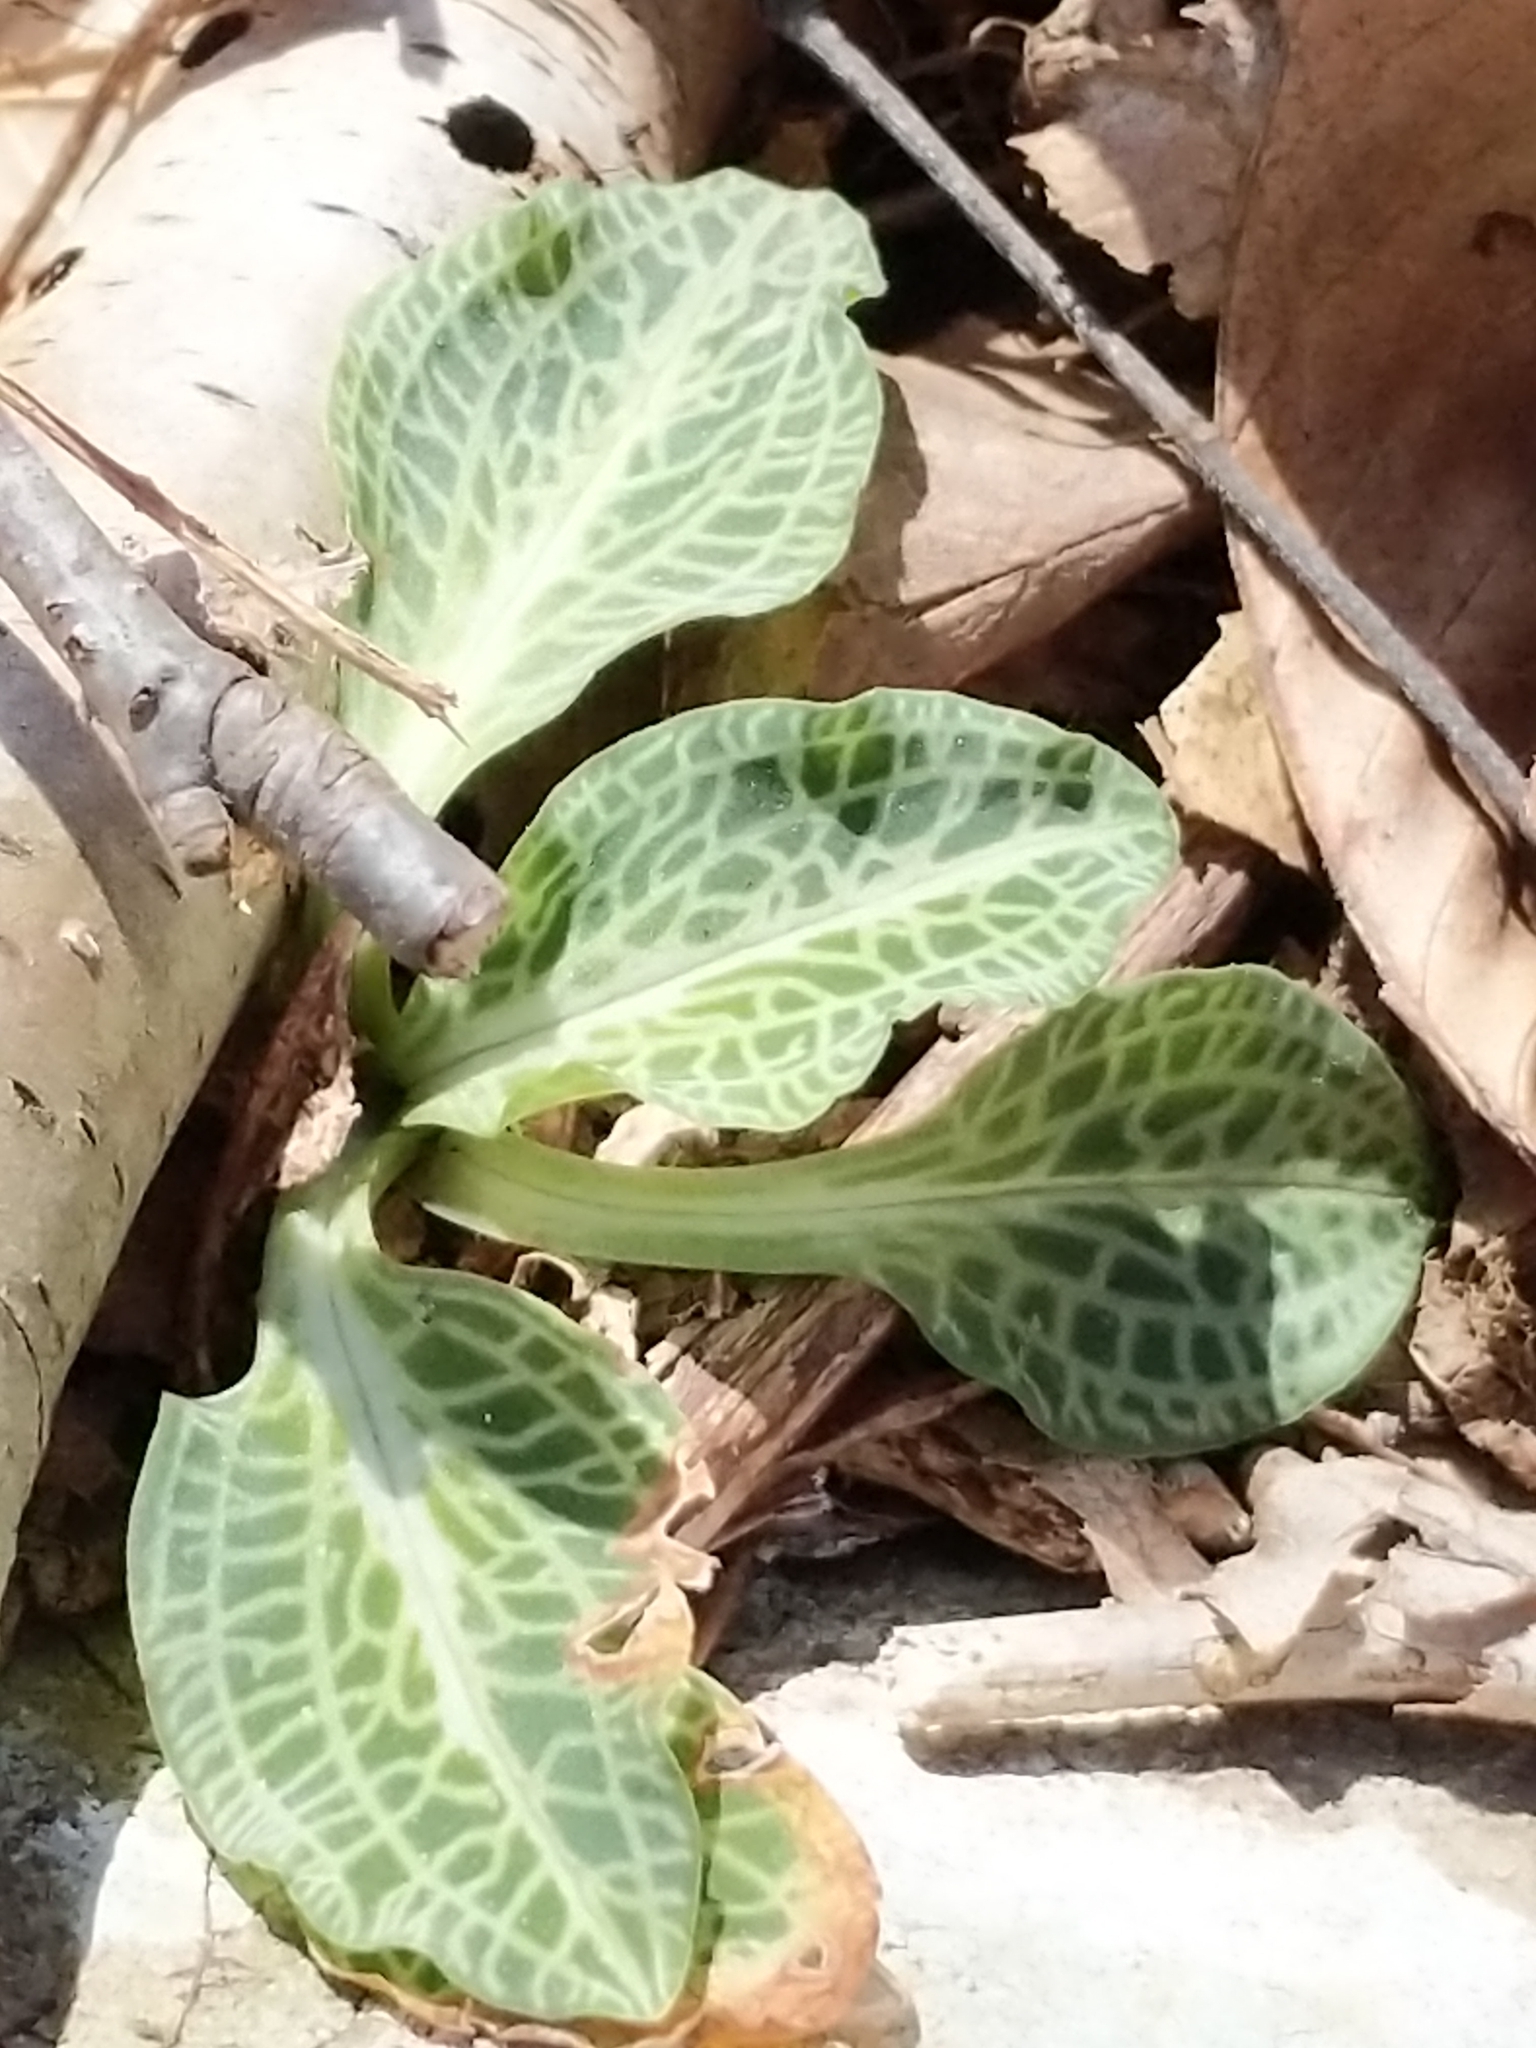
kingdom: Plantae
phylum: Tracheophyta
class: Liliopsida
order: Asparagales
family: Orchidaceae
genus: Goodyera
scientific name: Goodyera pubescens
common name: Downy rattlesnake-plantain
